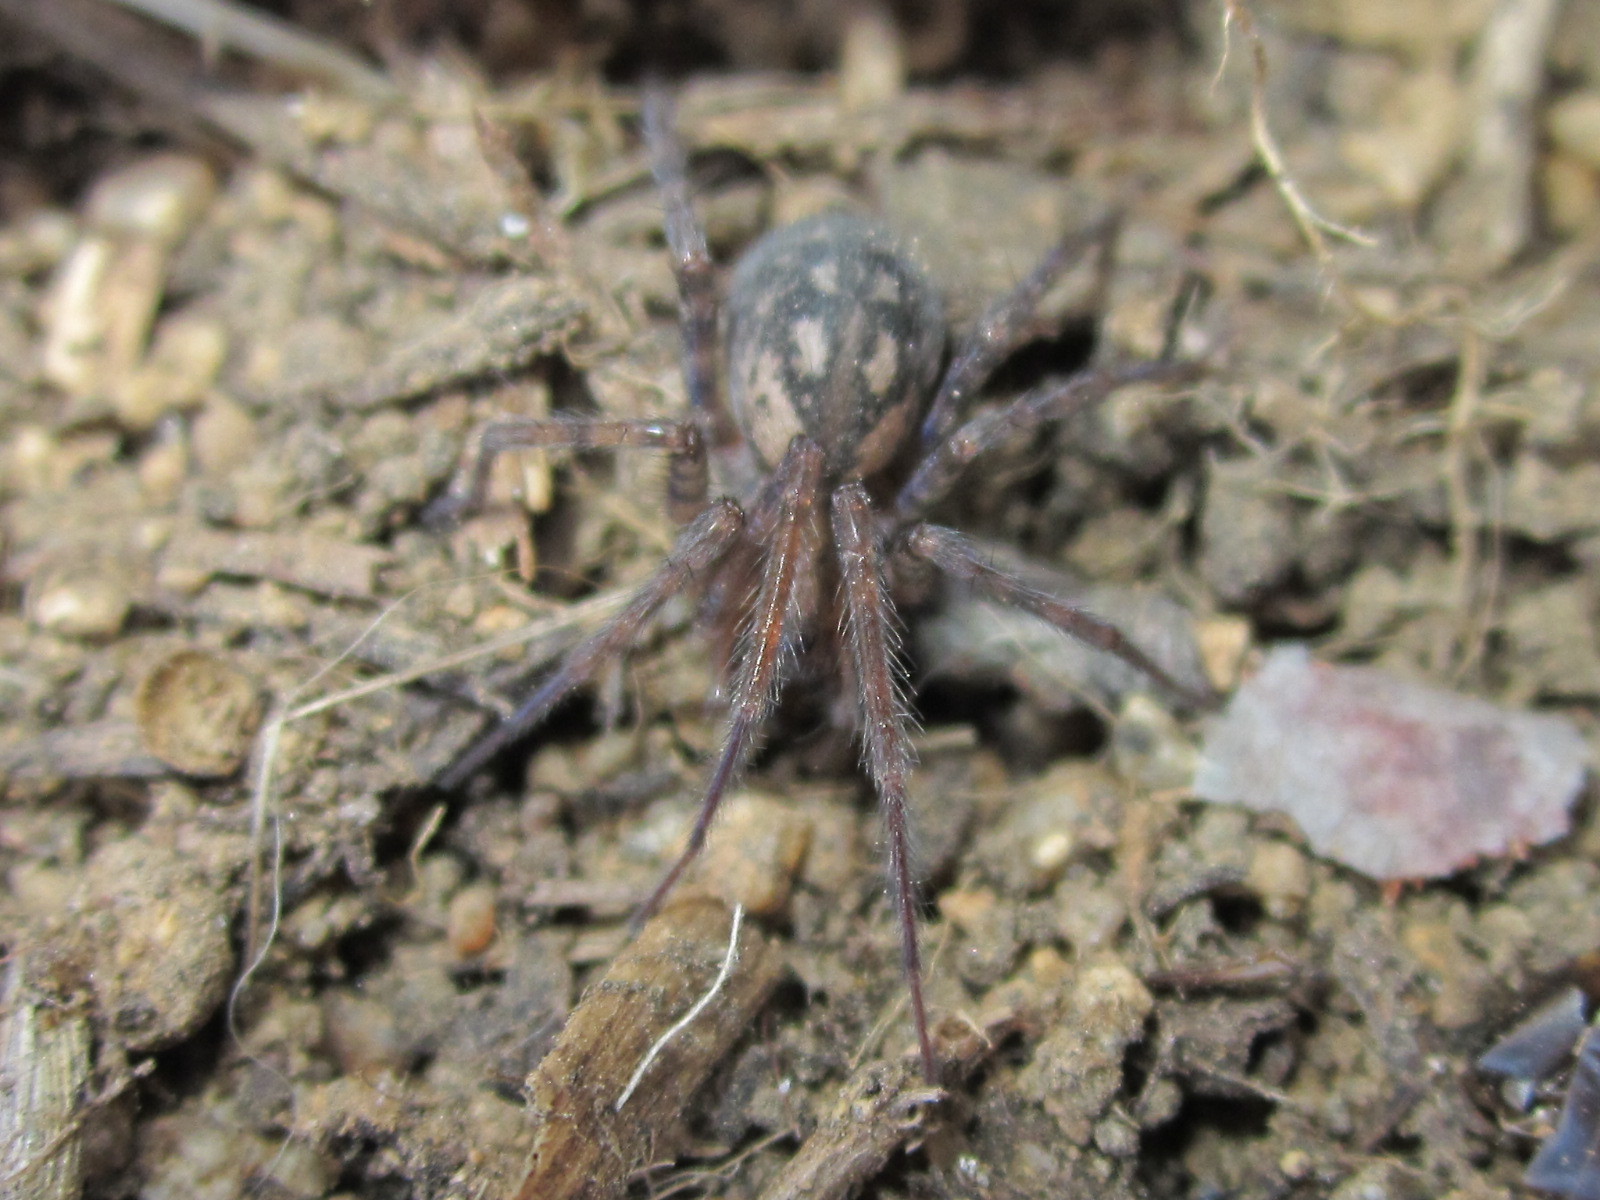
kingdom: Animalia
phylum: Arthropoda
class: Arachnida
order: Araneae
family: Agelenidae
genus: Tegenaria
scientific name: Tegenaria pagana
